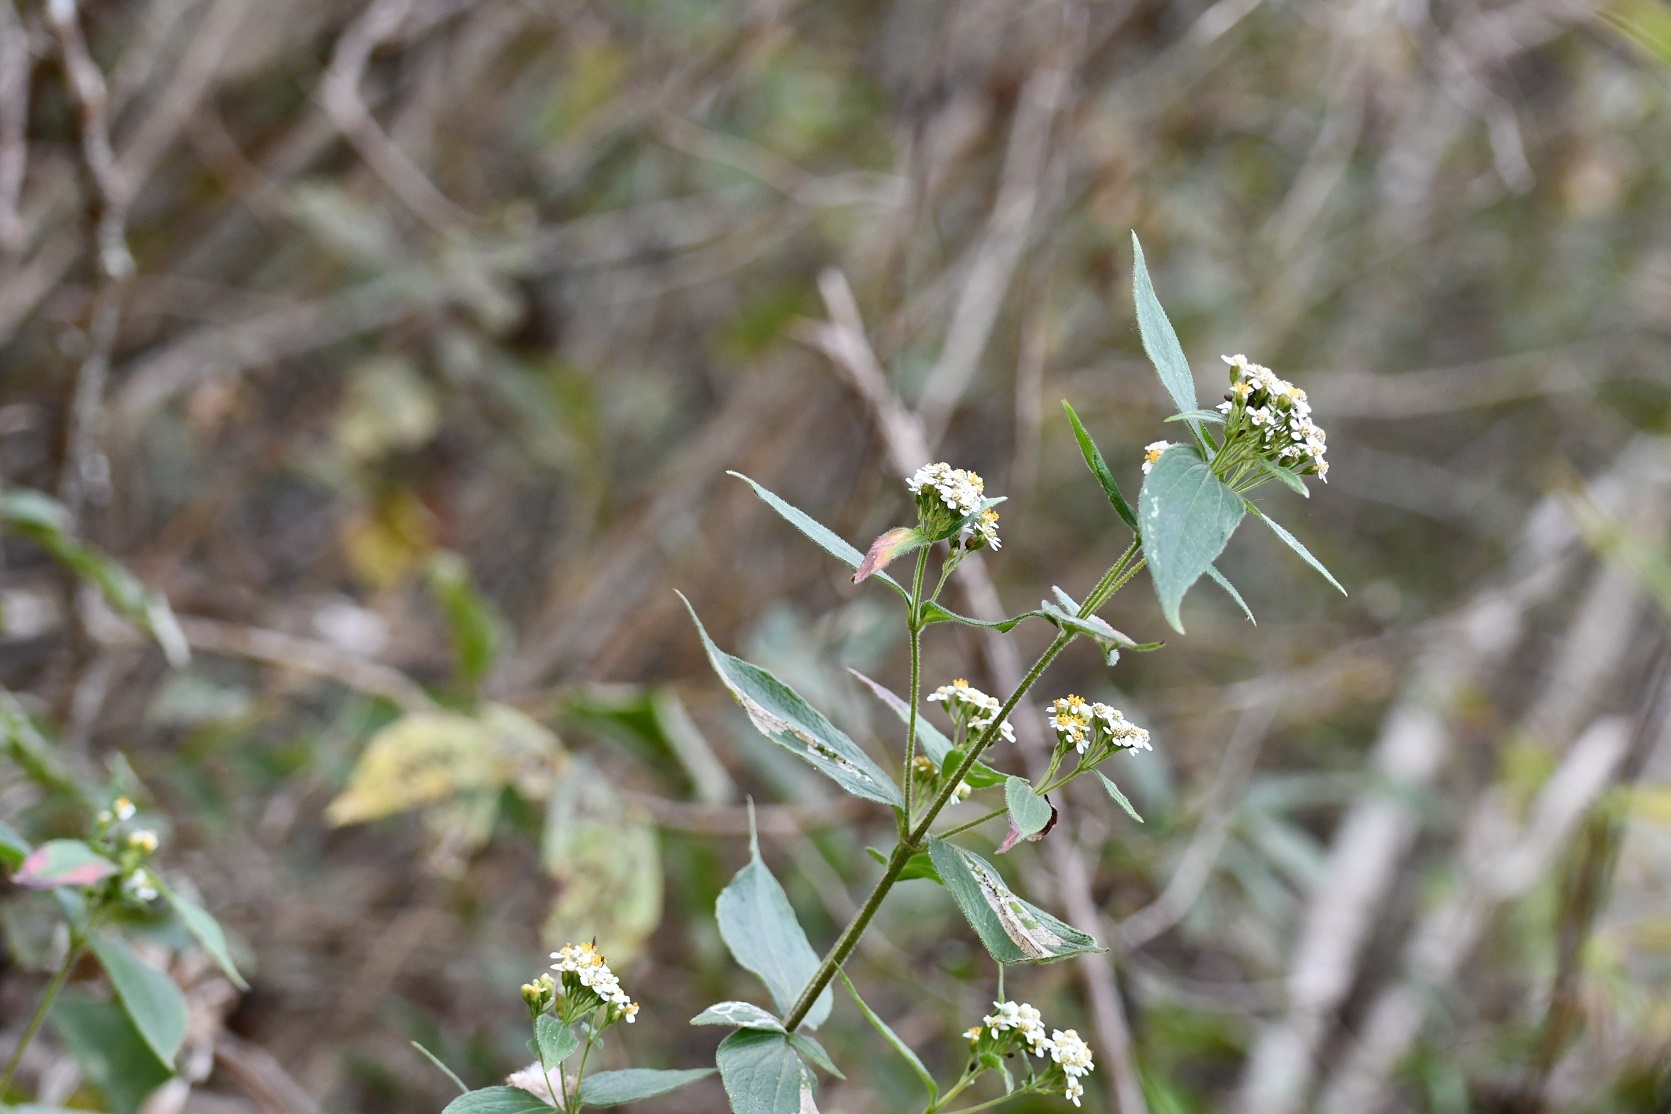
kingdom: Plantae
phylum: Tracheophyta
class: Magnoliopsida
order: Asterales
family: Asteraceae
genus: Alloispermum
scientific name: Alloispermum integrifolium
